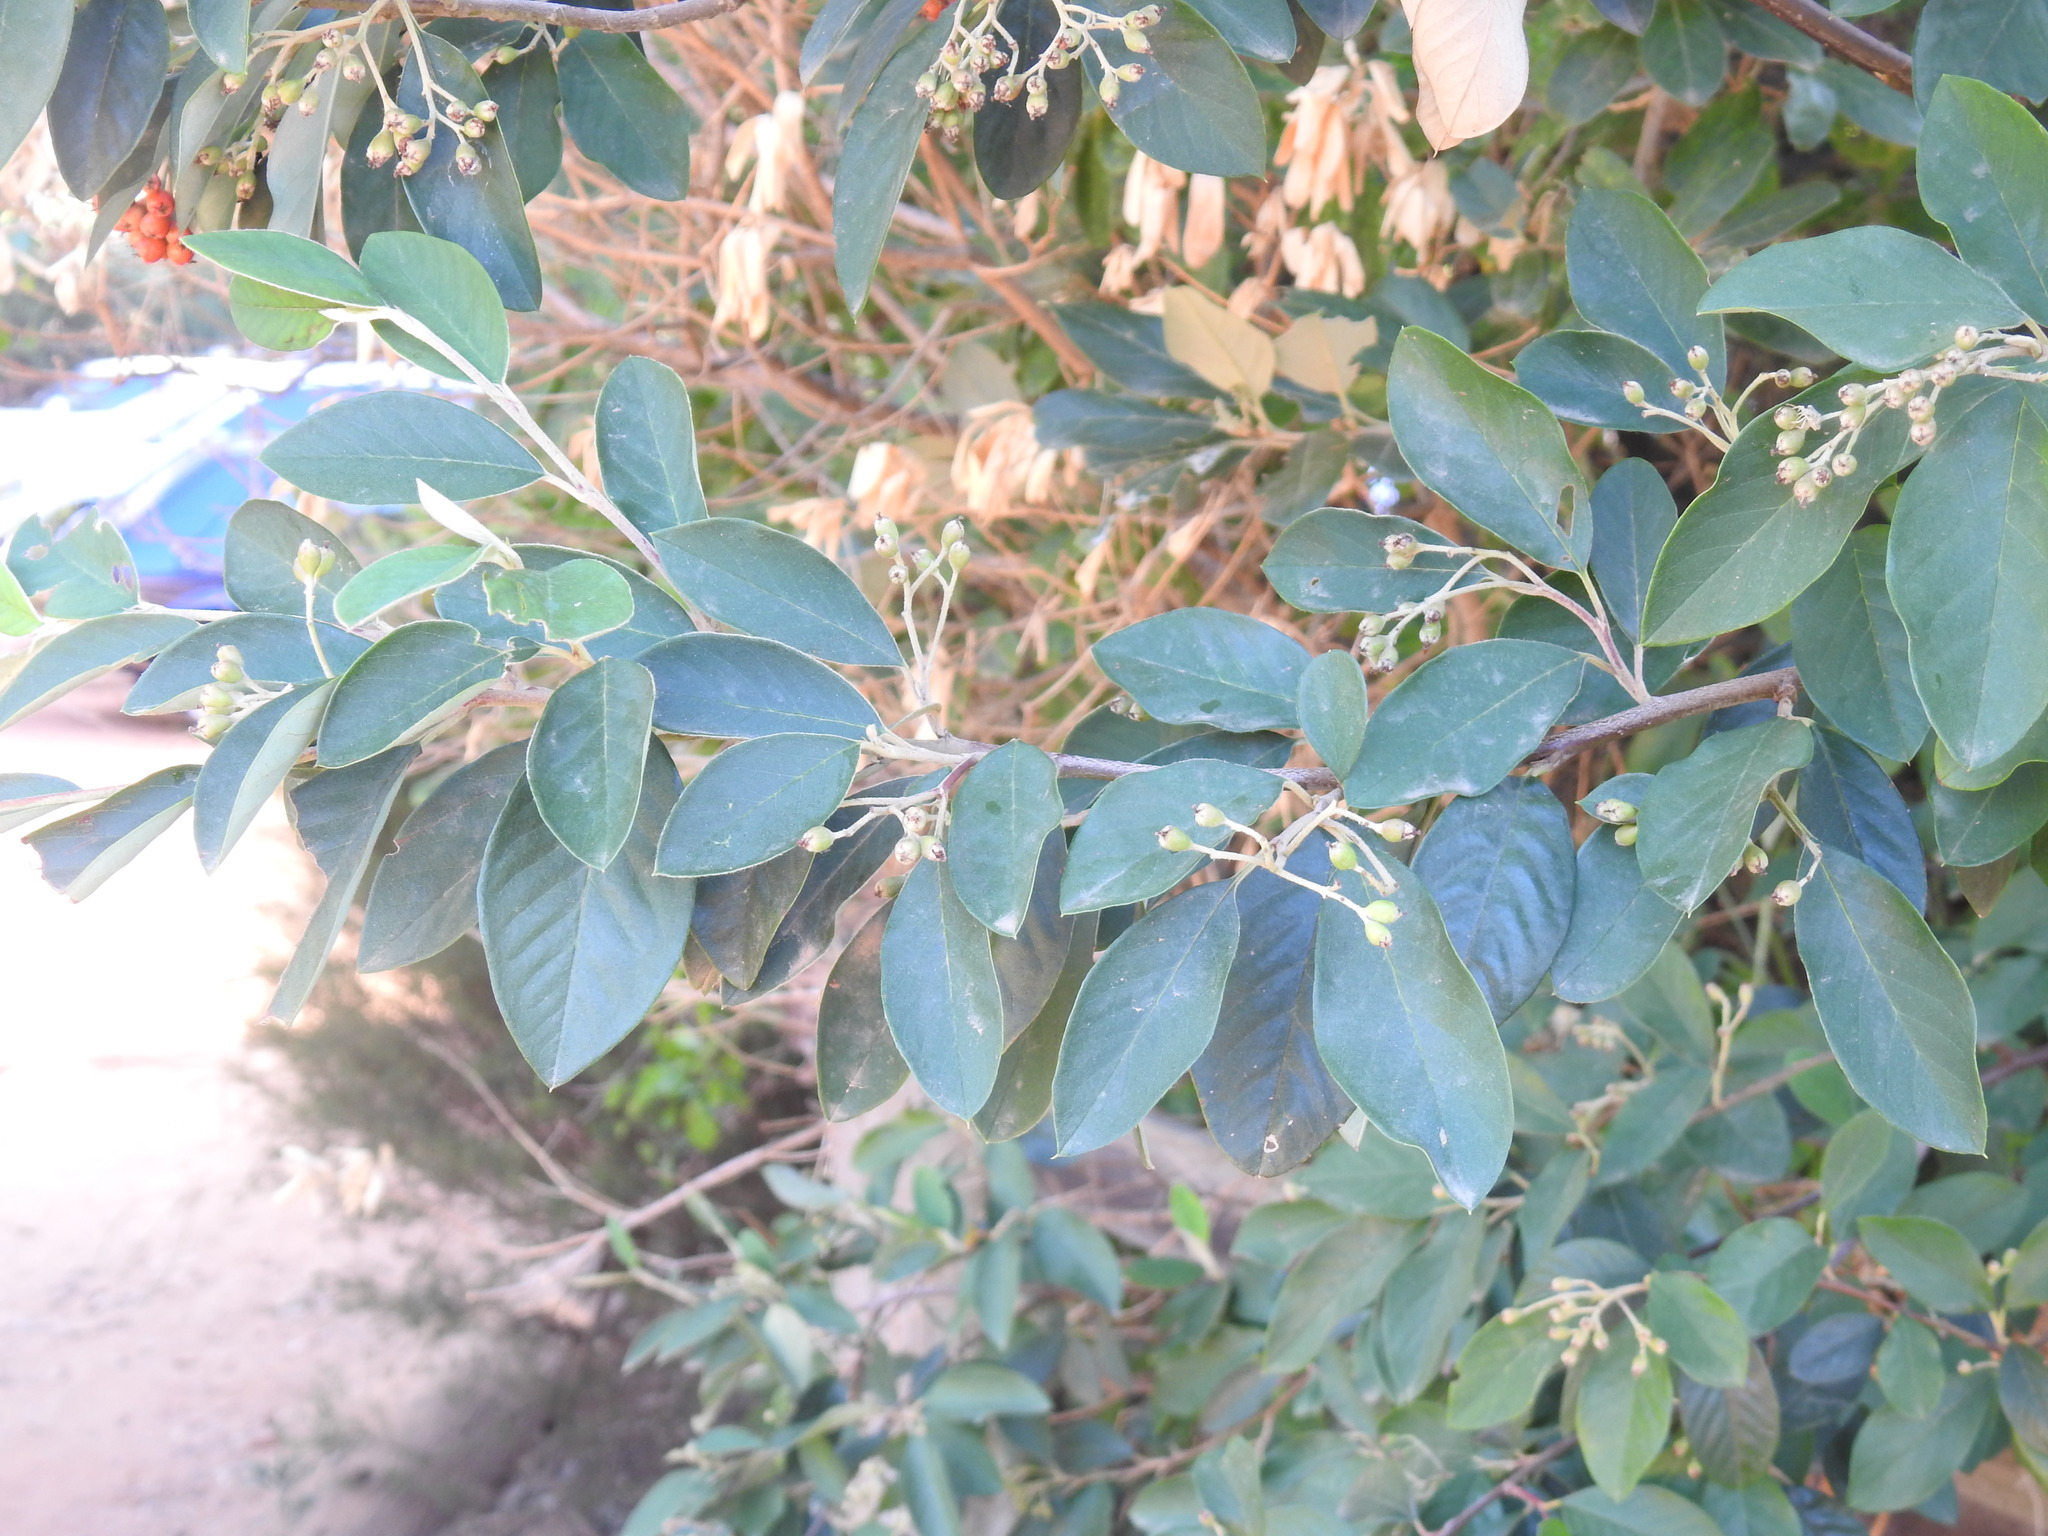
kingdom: Plantae
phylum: Tracheophyta
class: Magnoliopsida
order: Rosales
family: Rosaceae
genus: Cotoneaster
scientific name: Cotoneaster glaucophyllus
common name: Glaucous cotoneaster
